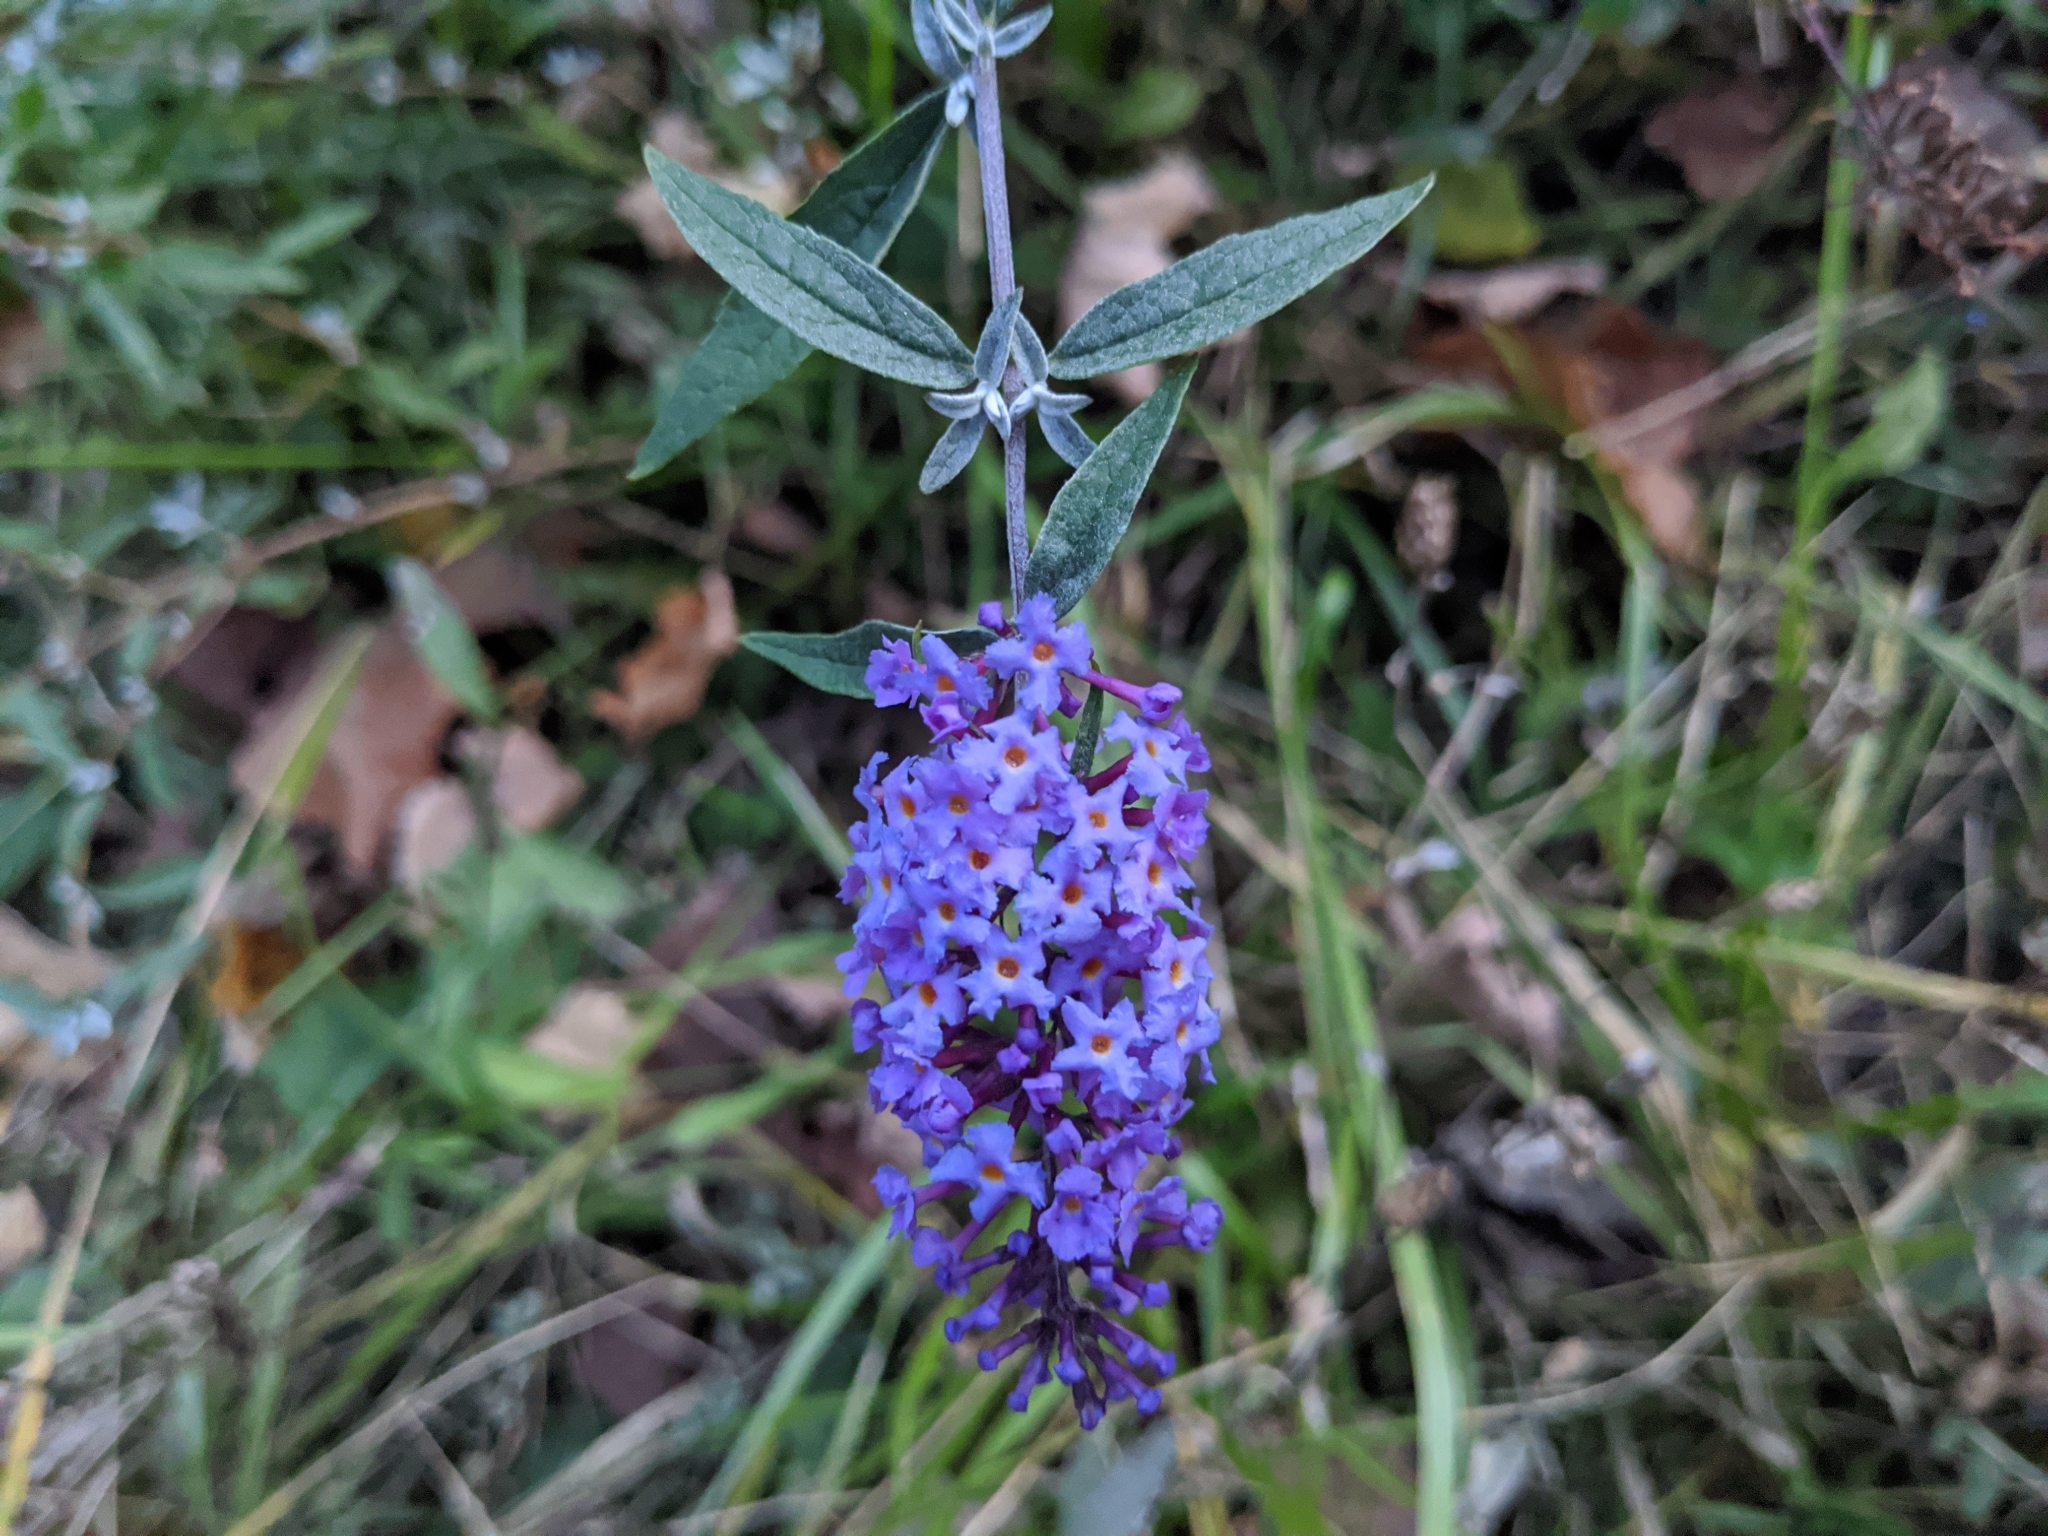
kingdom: Plantae
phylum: Tracheophyta
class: Magnoliopsida
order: Lamiales
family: Scrophulariaceae
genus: Buddleja
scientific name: Buddleja davidii
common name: Butterfly-bush
